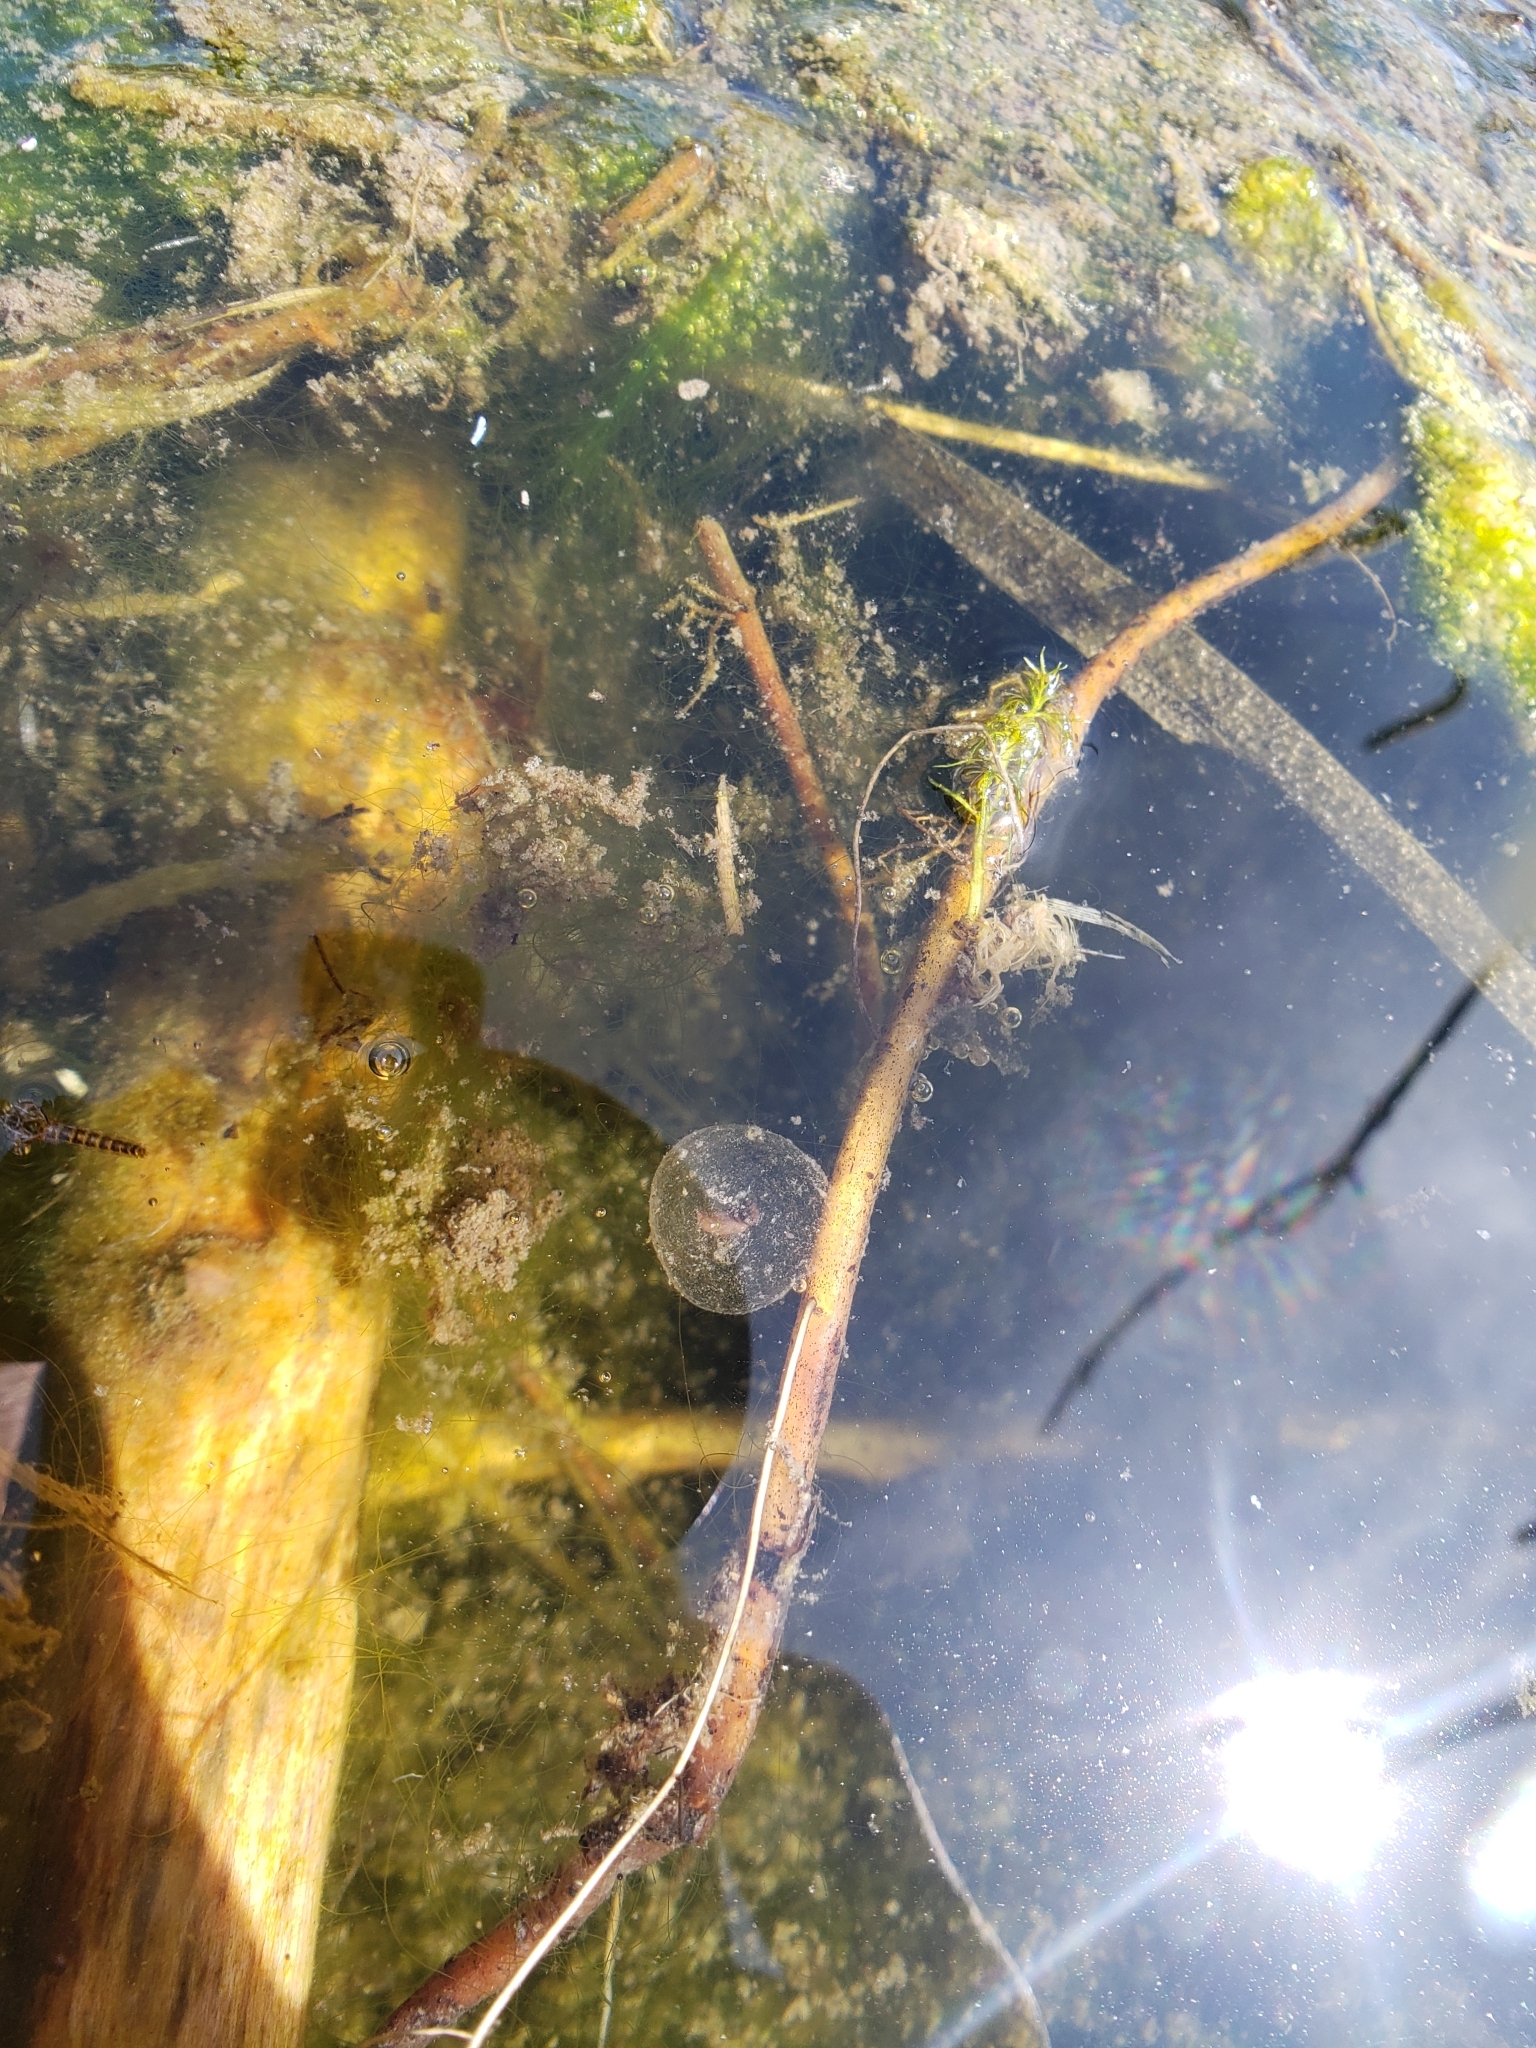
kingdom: Animalia
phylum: Chordata
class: Amphibia
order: Caudata
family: Ambystomatidae
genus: Ambystoma
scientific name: Ambystoma macrodactylum
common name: Long-toed salamander
